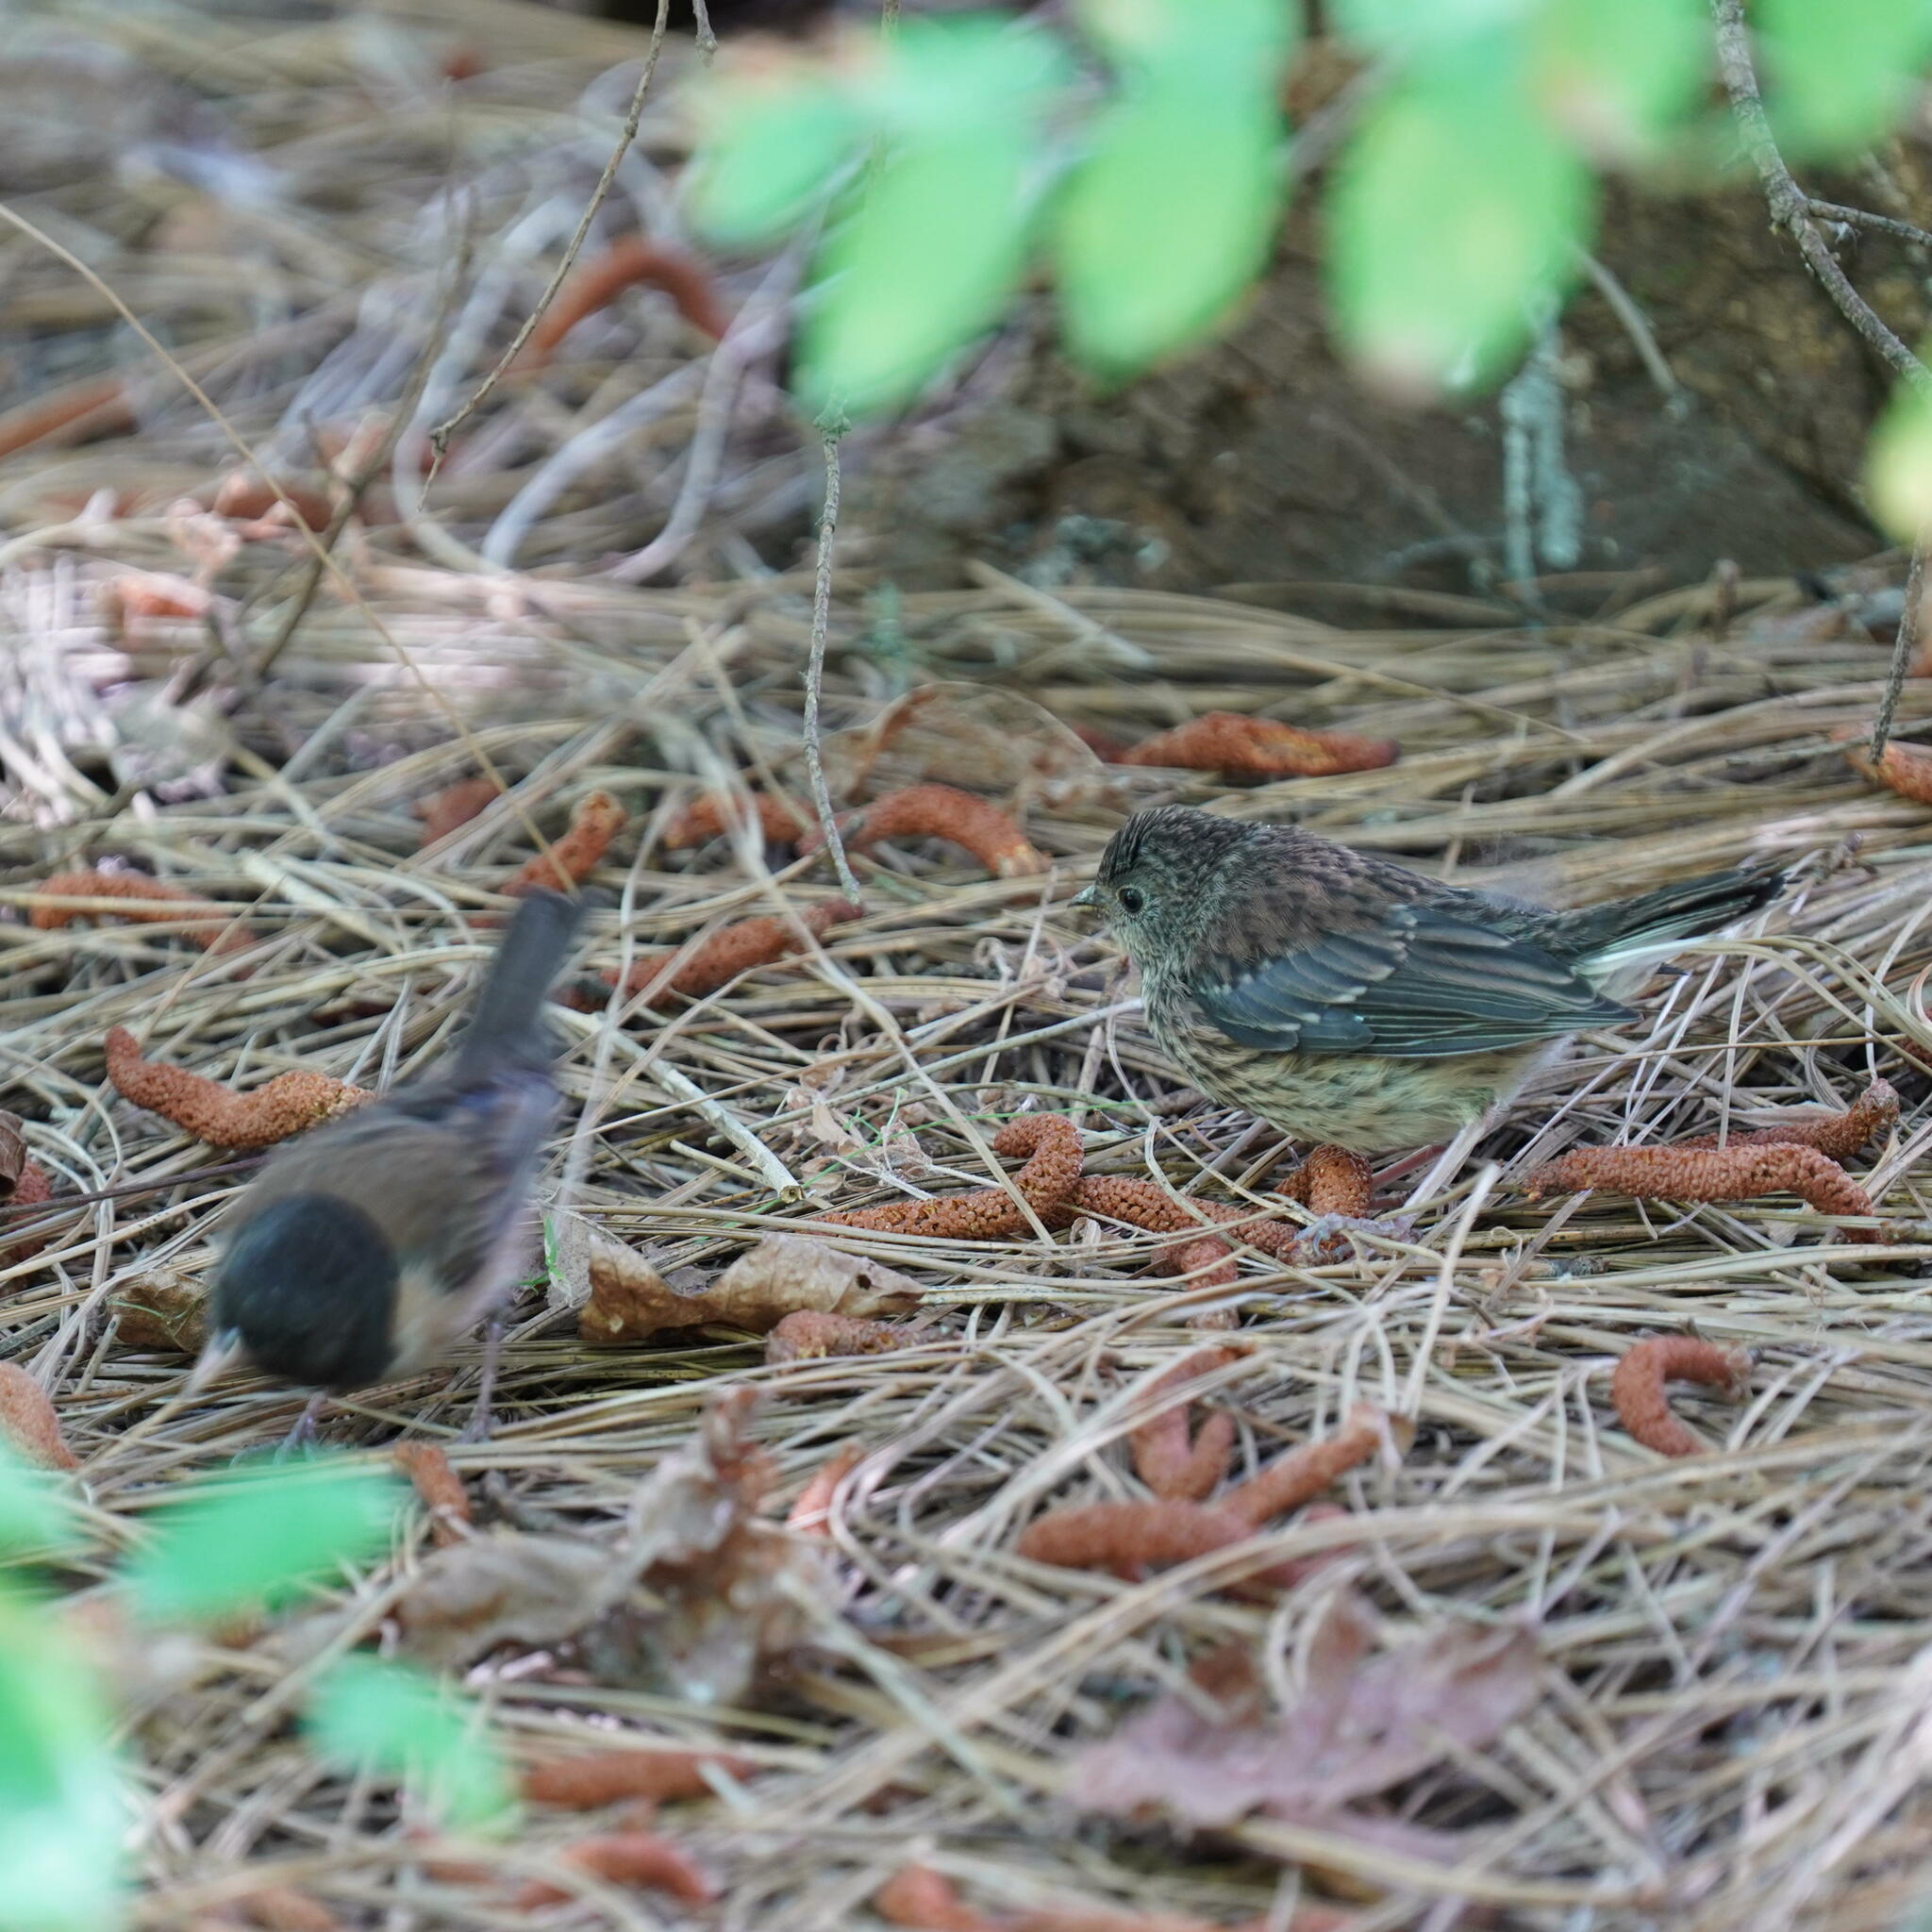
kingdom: Animalia
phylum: Chordata
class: Aves
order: Passeriformes
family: Passerellidae
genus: Junco
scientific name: Junco hyemalis
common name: Dark-eyed junco
